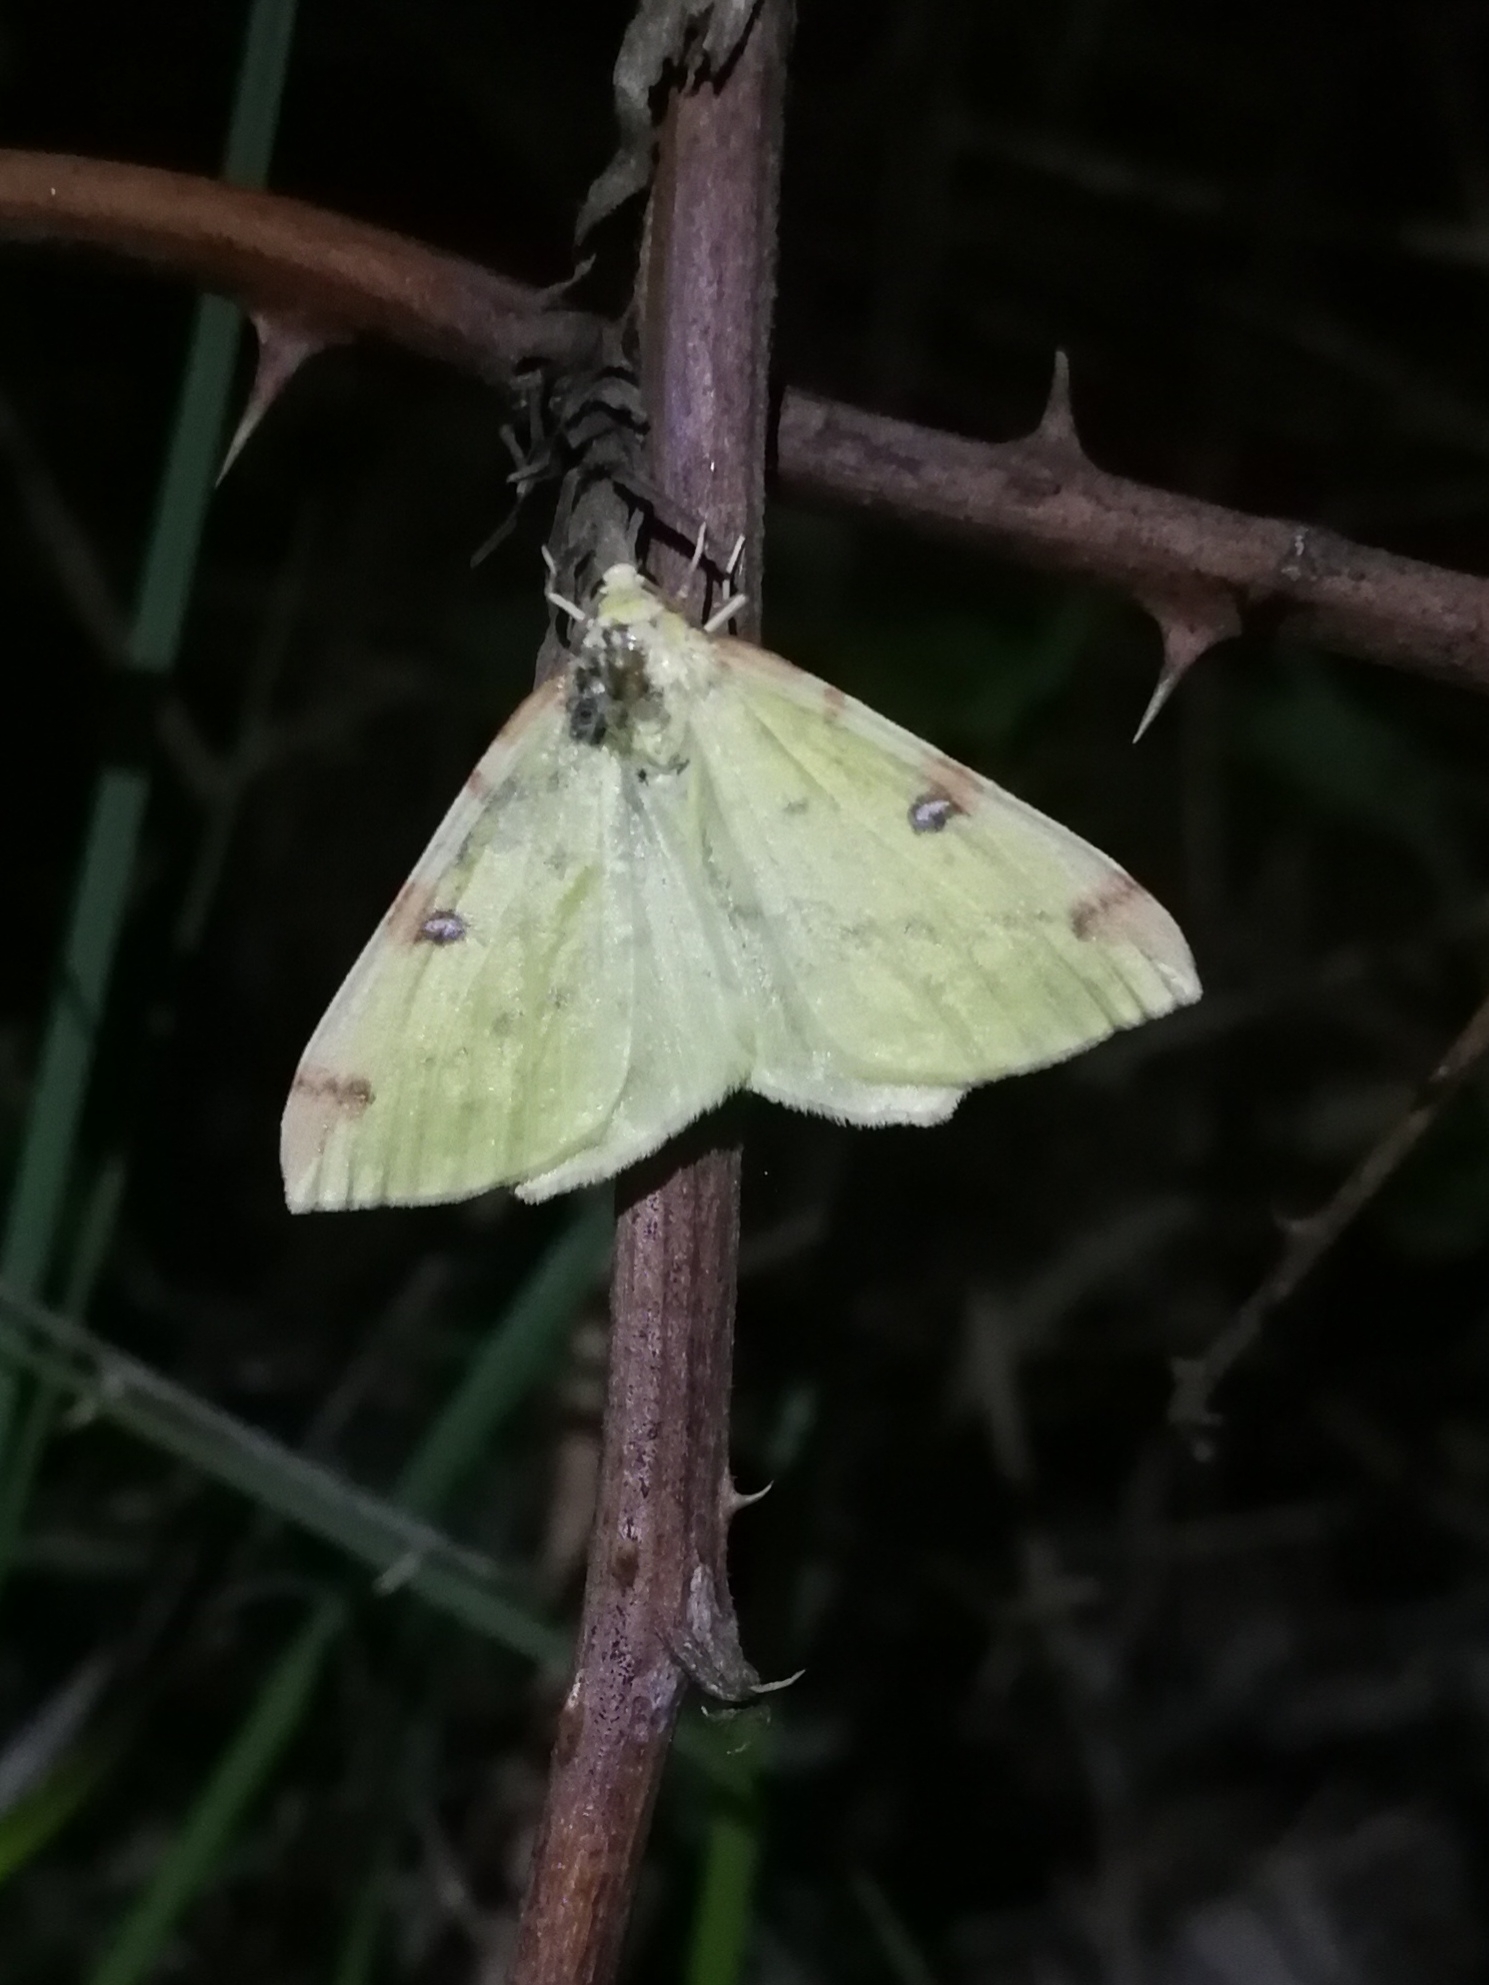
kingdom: Animalia
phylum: Arthropoda
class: Insecta
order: Lepidoptera
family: Geometridae
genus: Opisthograptis
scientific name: Opisthograptis luteolata
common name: Brimstone moth
